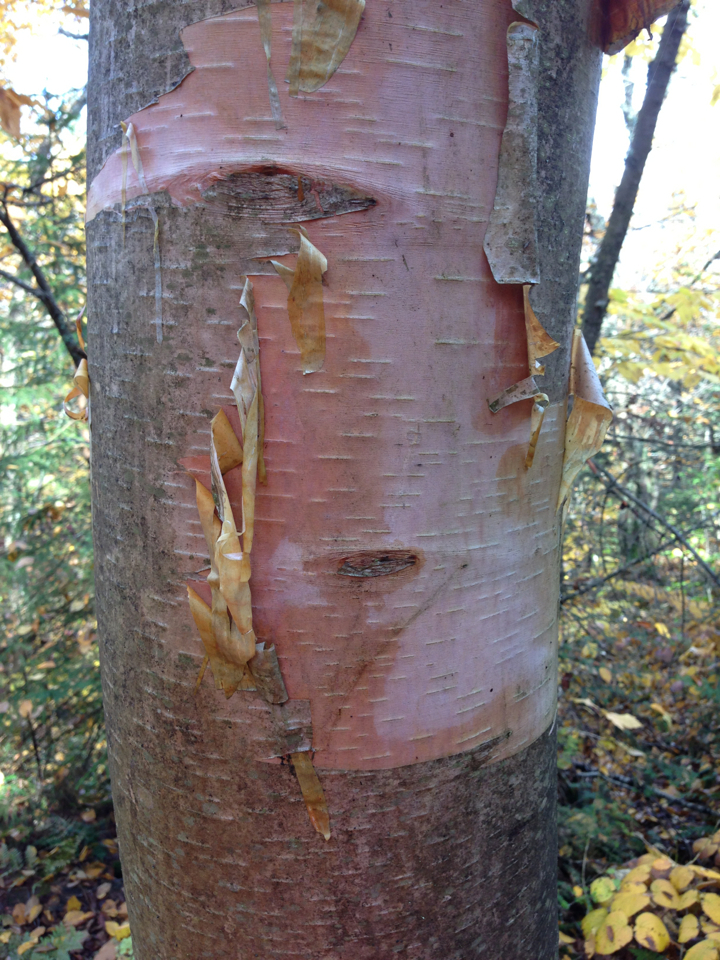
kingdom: Plantae
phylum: Tracheophyta
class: Magnoliopsida
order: Fagales
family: Betulaceae
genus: Betula
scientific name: Betula cordifolia
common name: Mountain white birch
